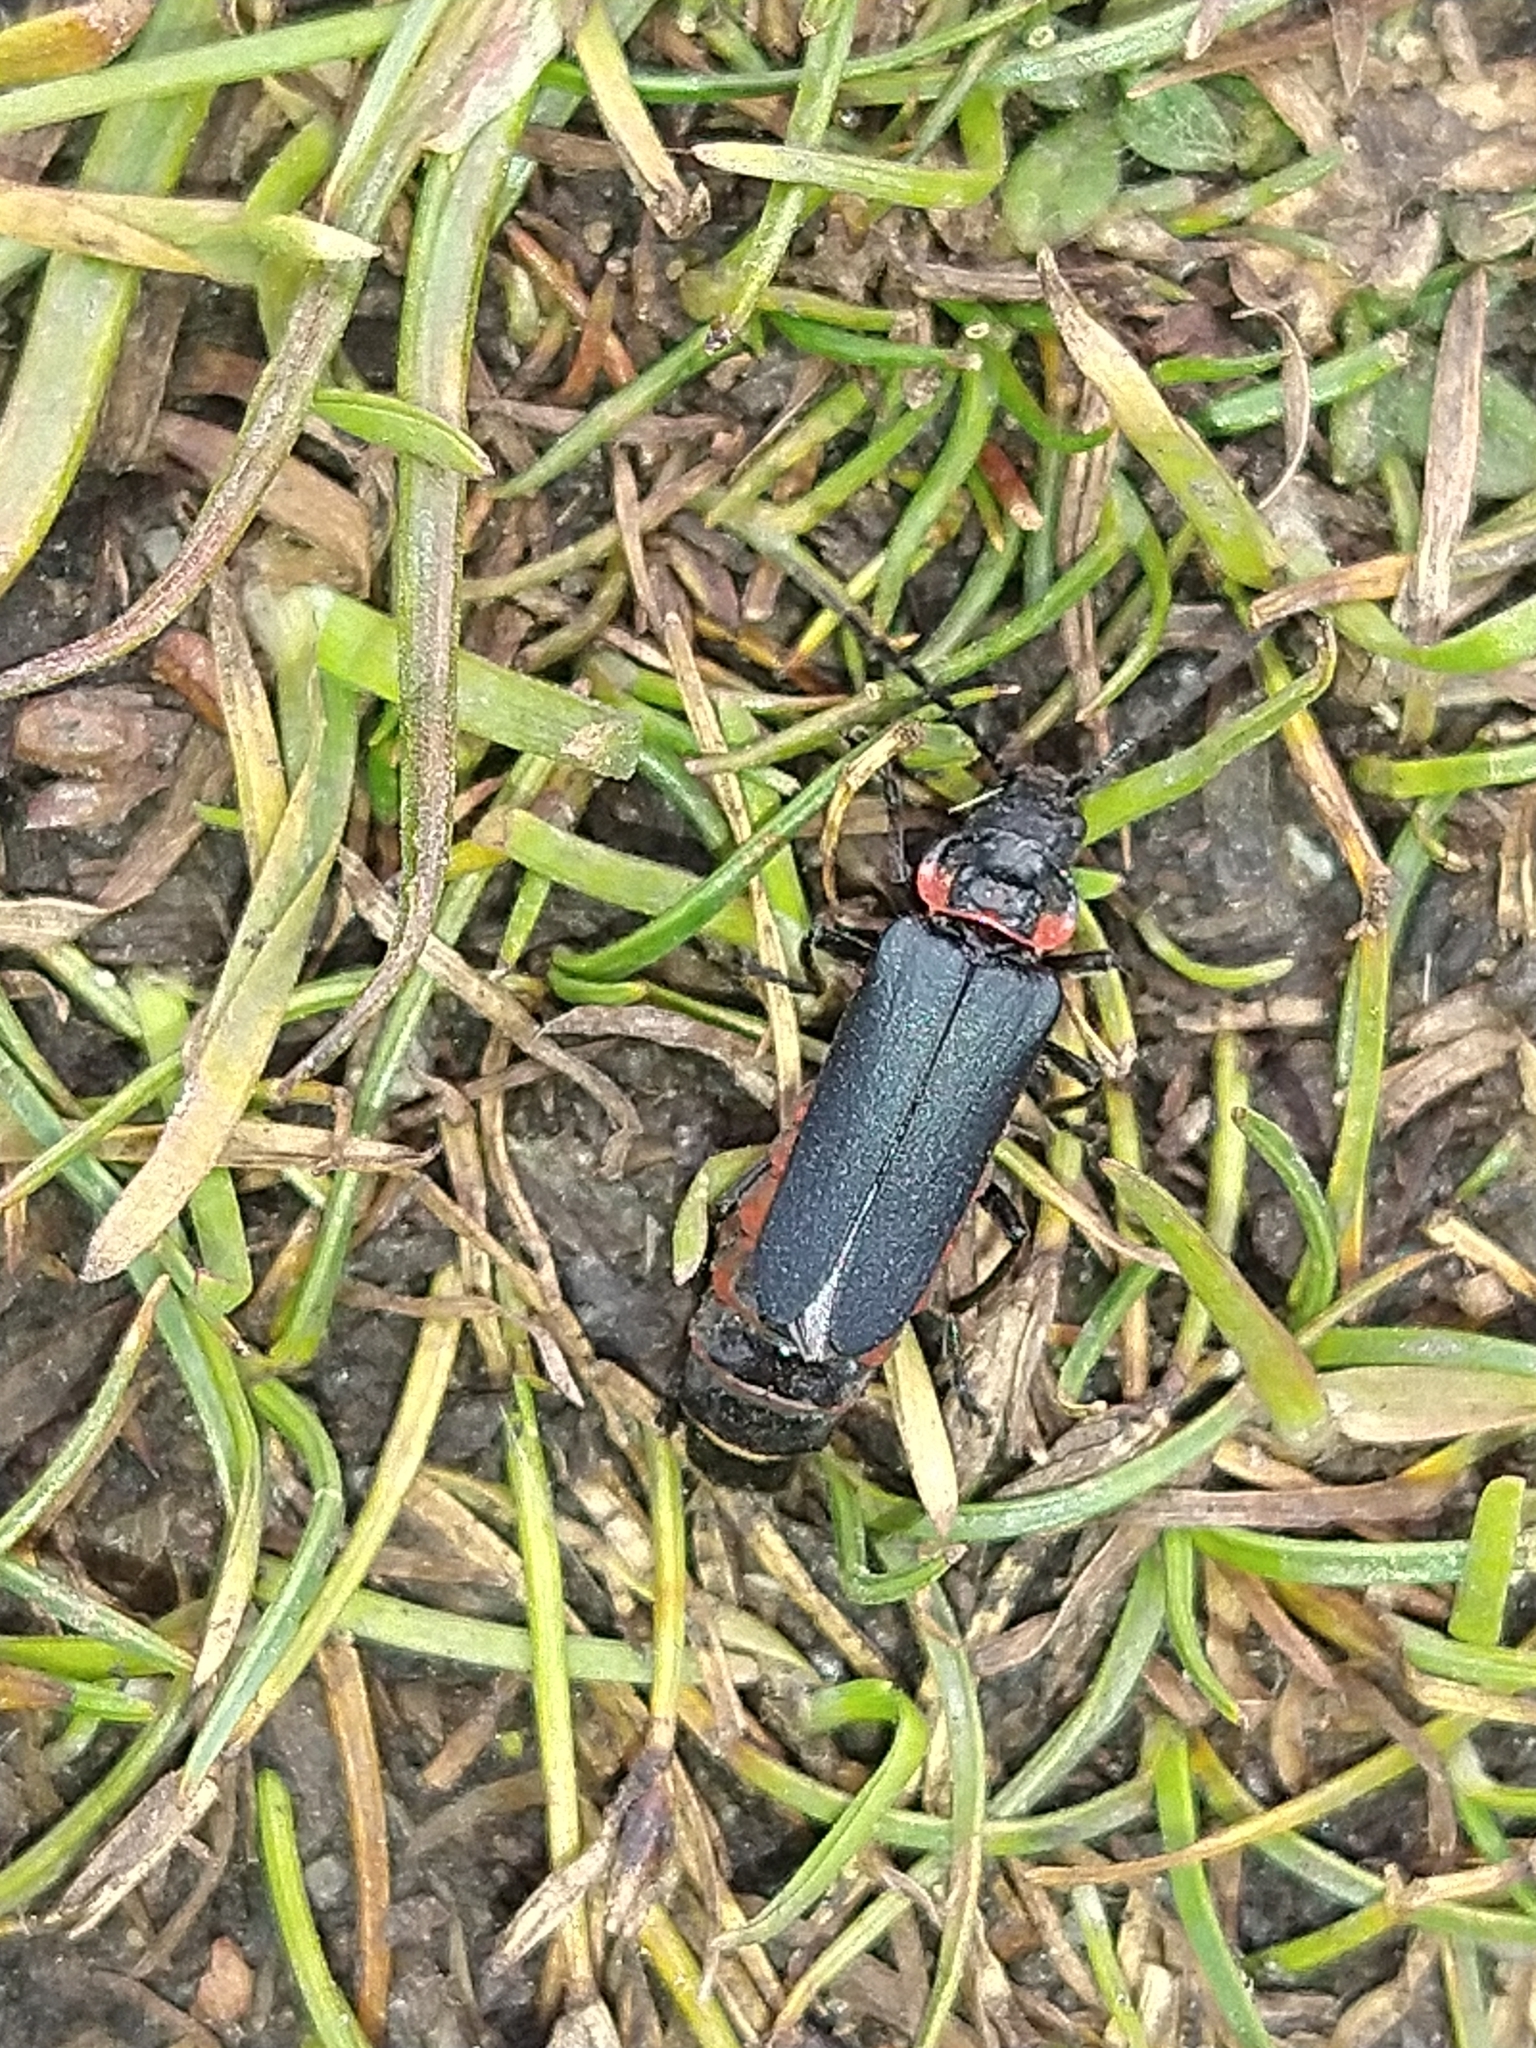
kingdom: Animalia
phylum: Arthropoda
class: Insecta
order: Coleoptera
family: Cantharidae
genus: Chauliognathus
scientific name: Chauliognathus
